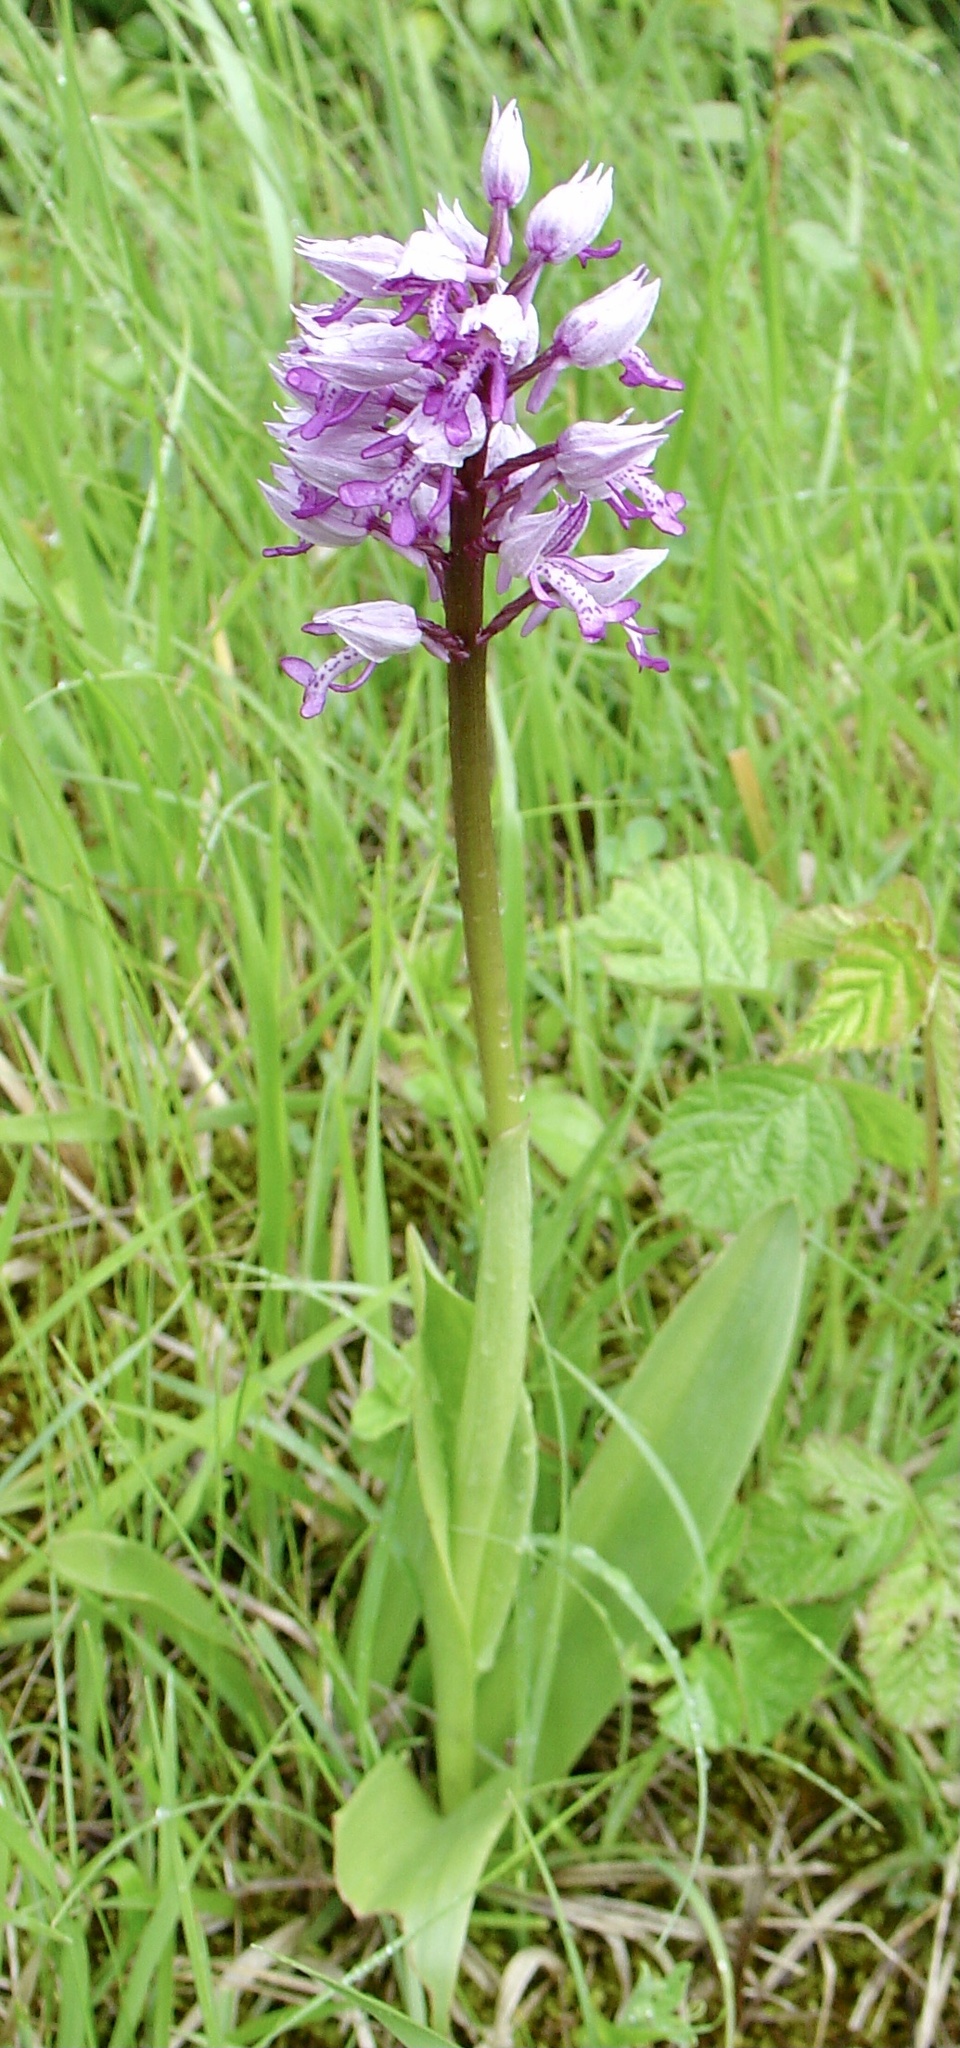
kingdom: Plantae
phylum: Tracheophyta
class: Liliopsida
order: Asparagales
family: Orchidaceae
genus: Orchis
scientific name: Orchis militaris
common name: Military orchid
